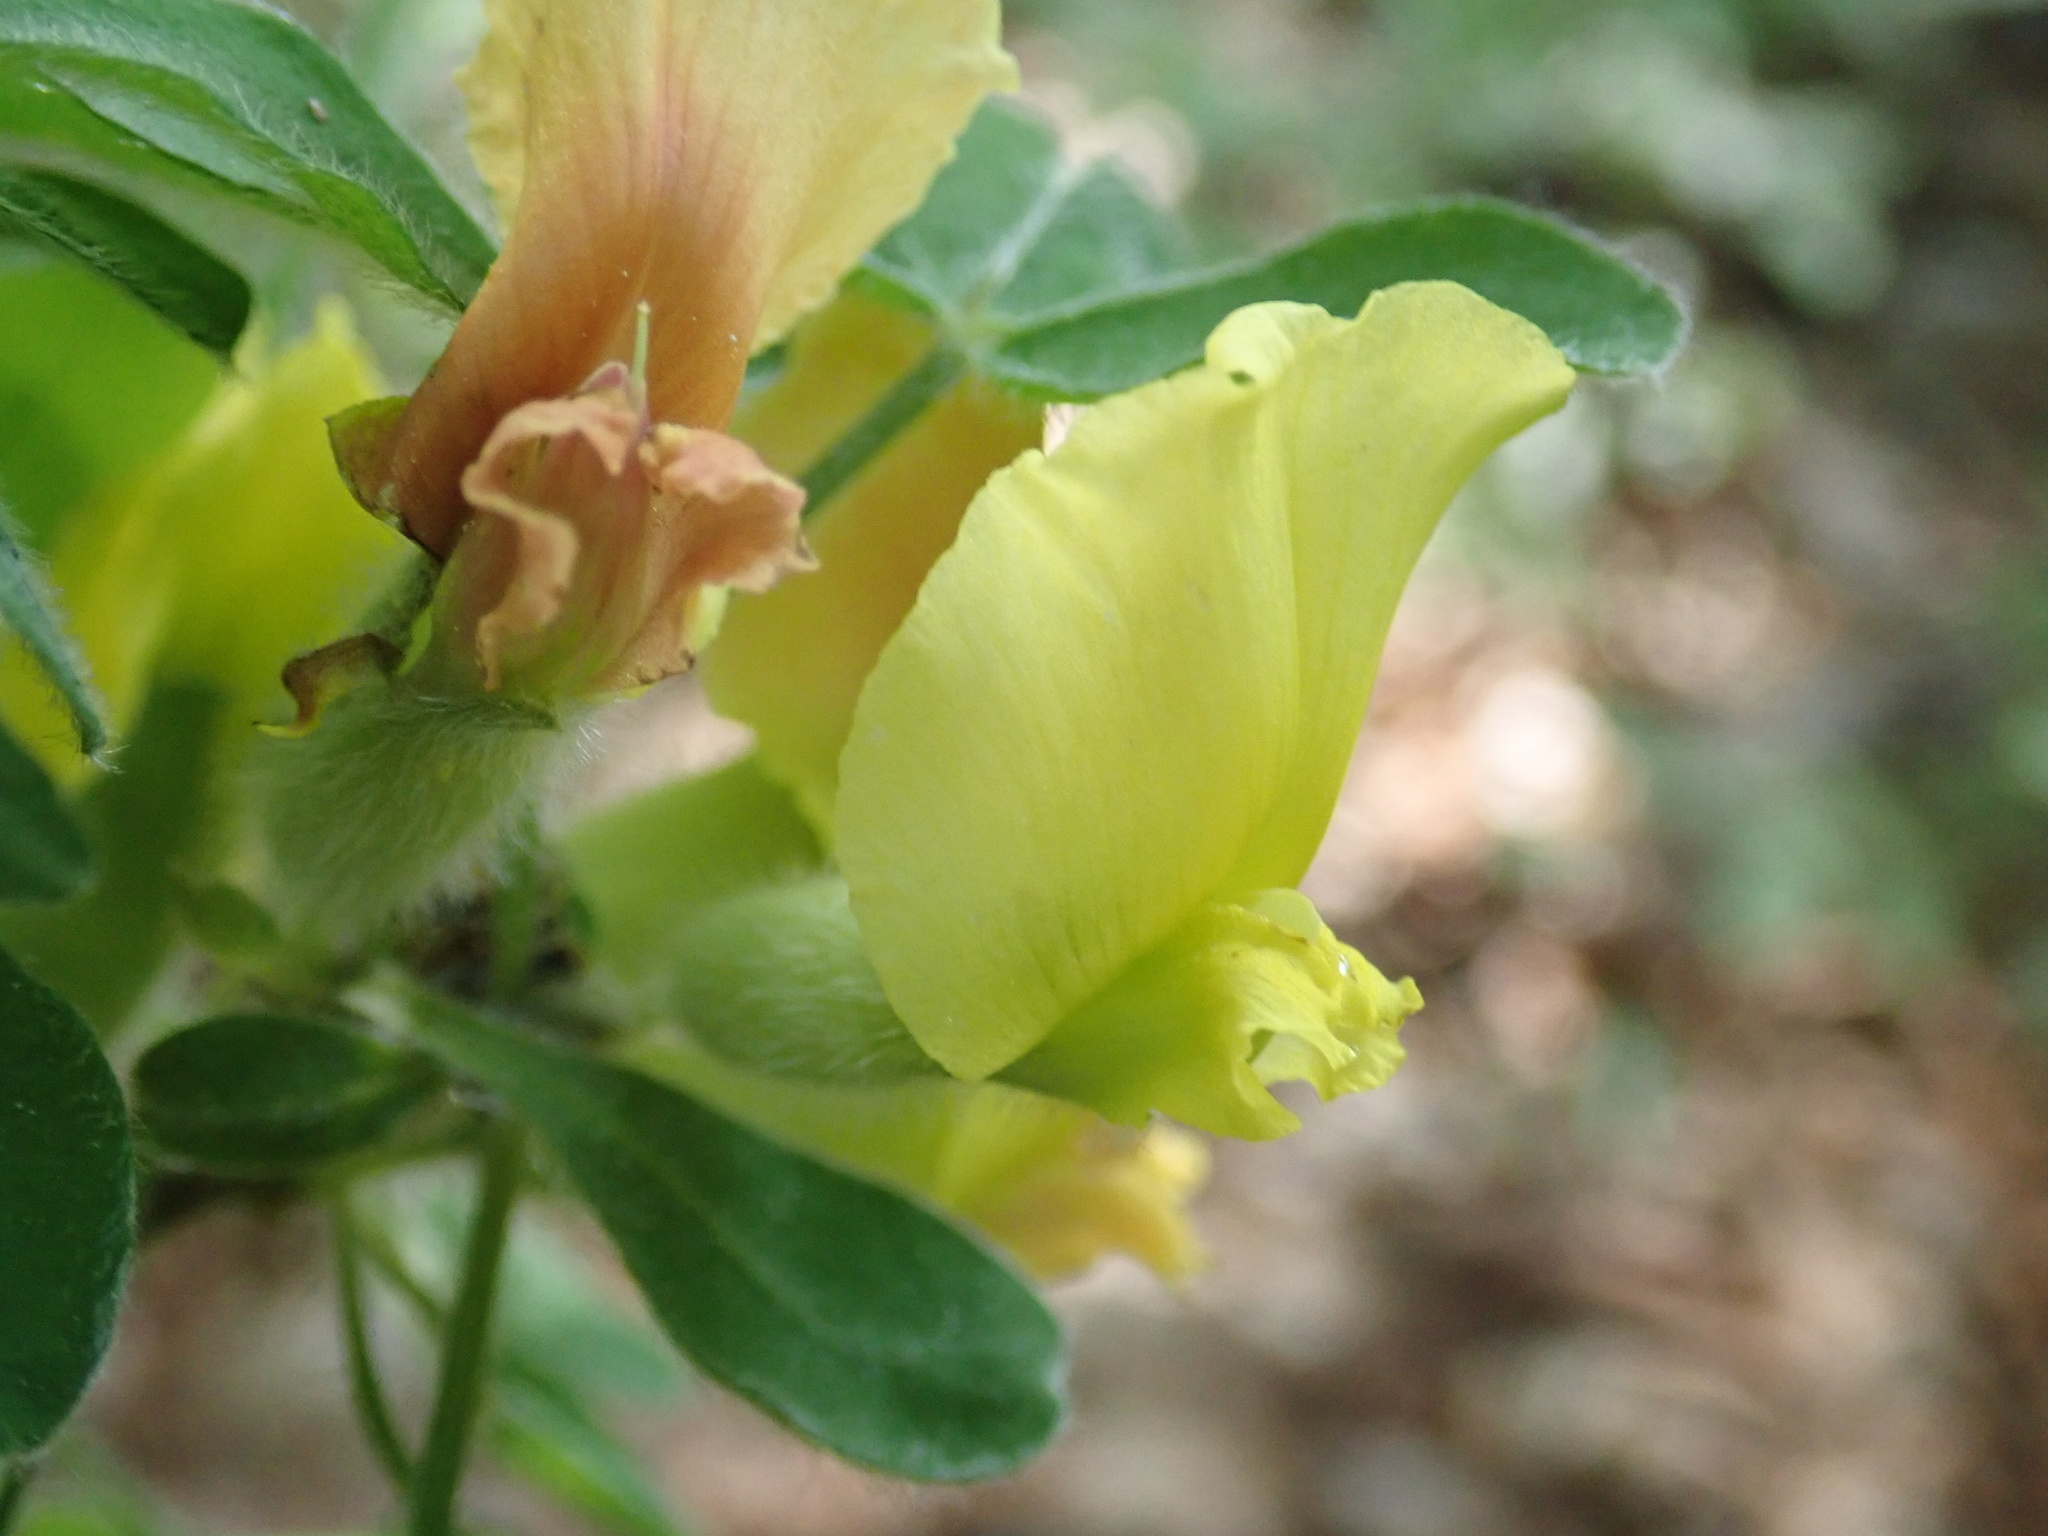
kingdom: Plantae
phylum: Tracheophyta
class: Magnoliopsida
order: Fabales
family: Fabaceae
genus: Chamaecytisus
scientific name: Chamaecytisus elongatus
